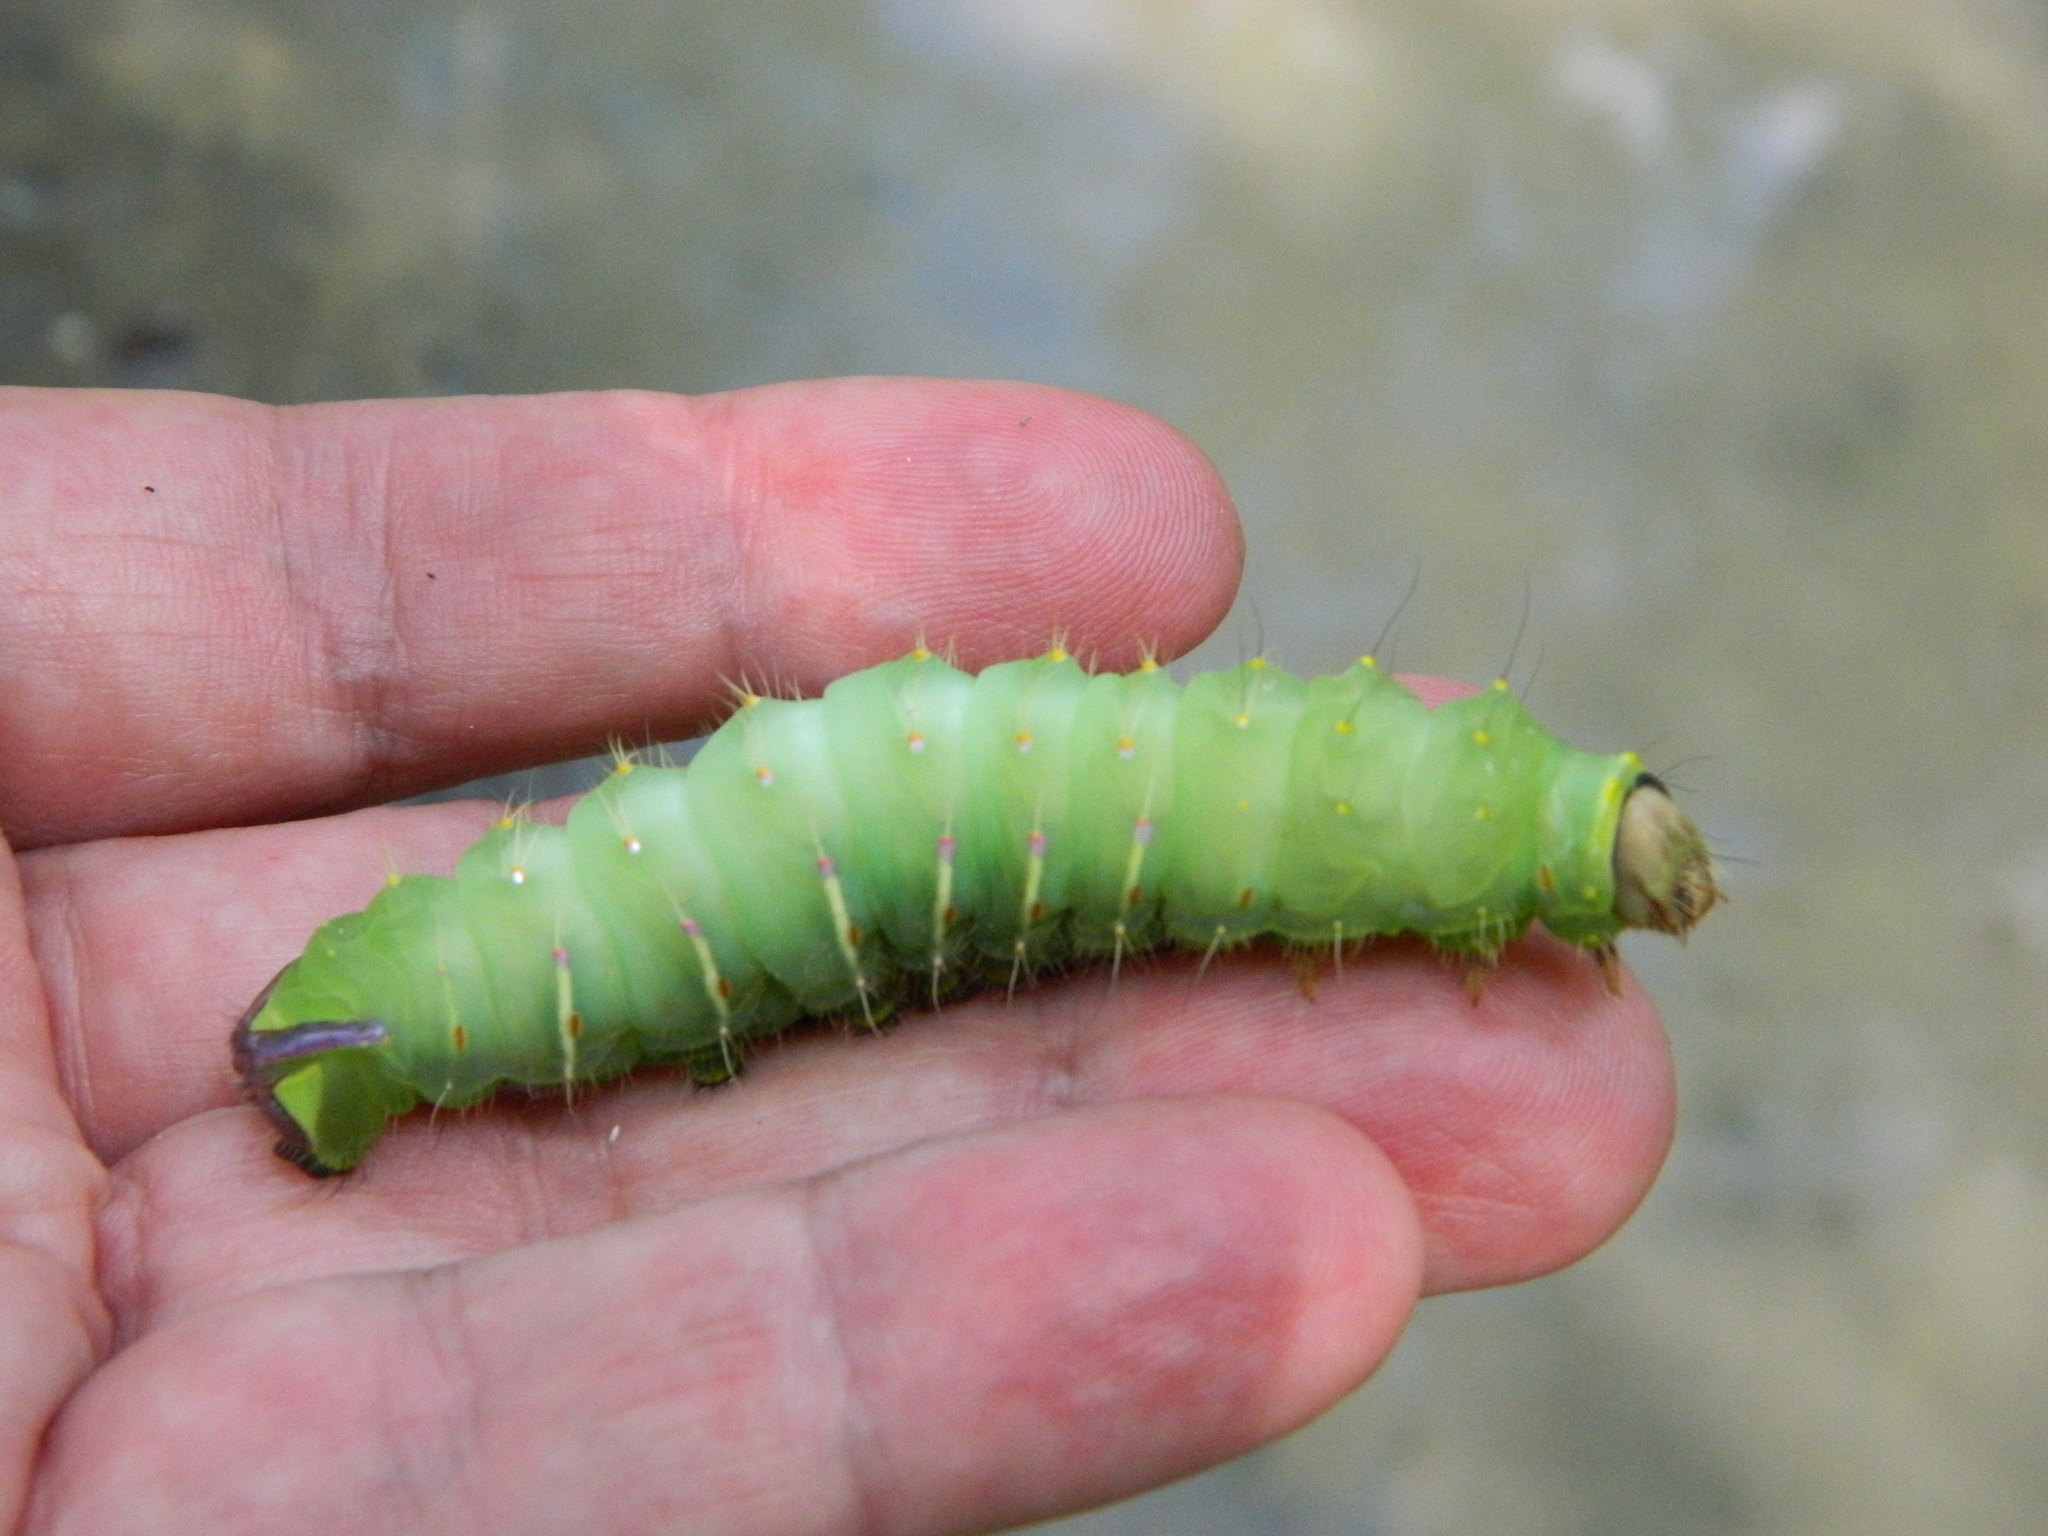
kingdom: Animalia
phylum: Arthropoda
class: Insecta
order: Lepidoptera
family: Saturniidae
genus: Antheraea
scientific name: Antheraea polyphemus
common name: Polyphemus moth
